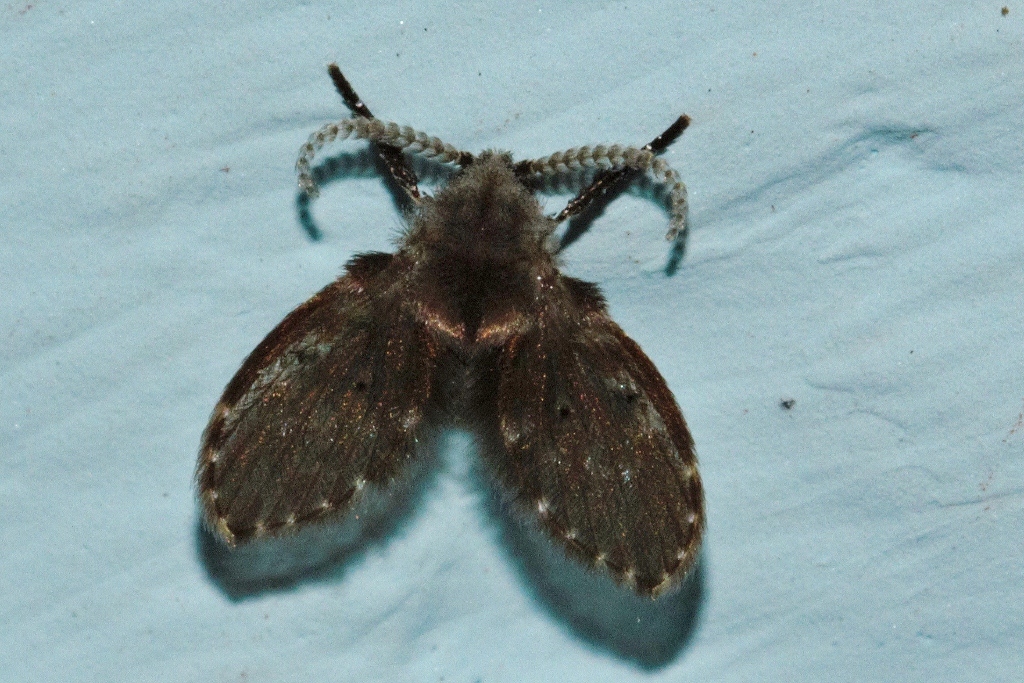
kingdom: Animalia
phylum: Arthropoda
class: Insecta
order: Diptera
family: Psychodidae
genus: Clogmia
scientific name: Clogmia albipunctatus
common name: White-spotted moth fly
